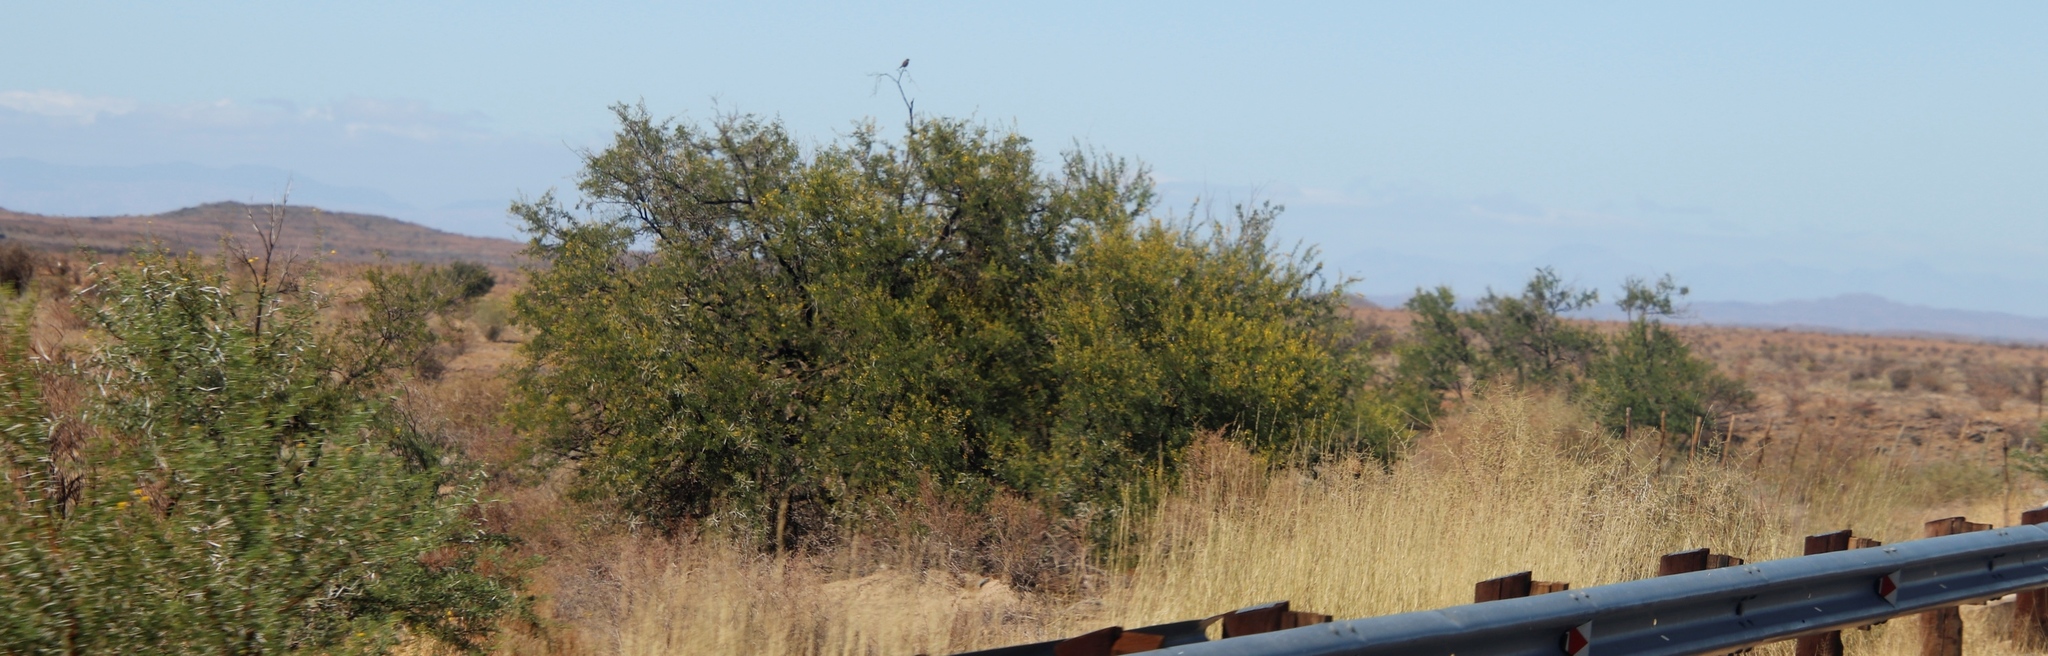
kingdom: Plantae
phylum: Tracheophyta
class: Magnoliopsida
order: Fabales
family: Fabaceae
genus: Vachellia
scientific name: Vachellia karroo
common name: Sweet thorn
